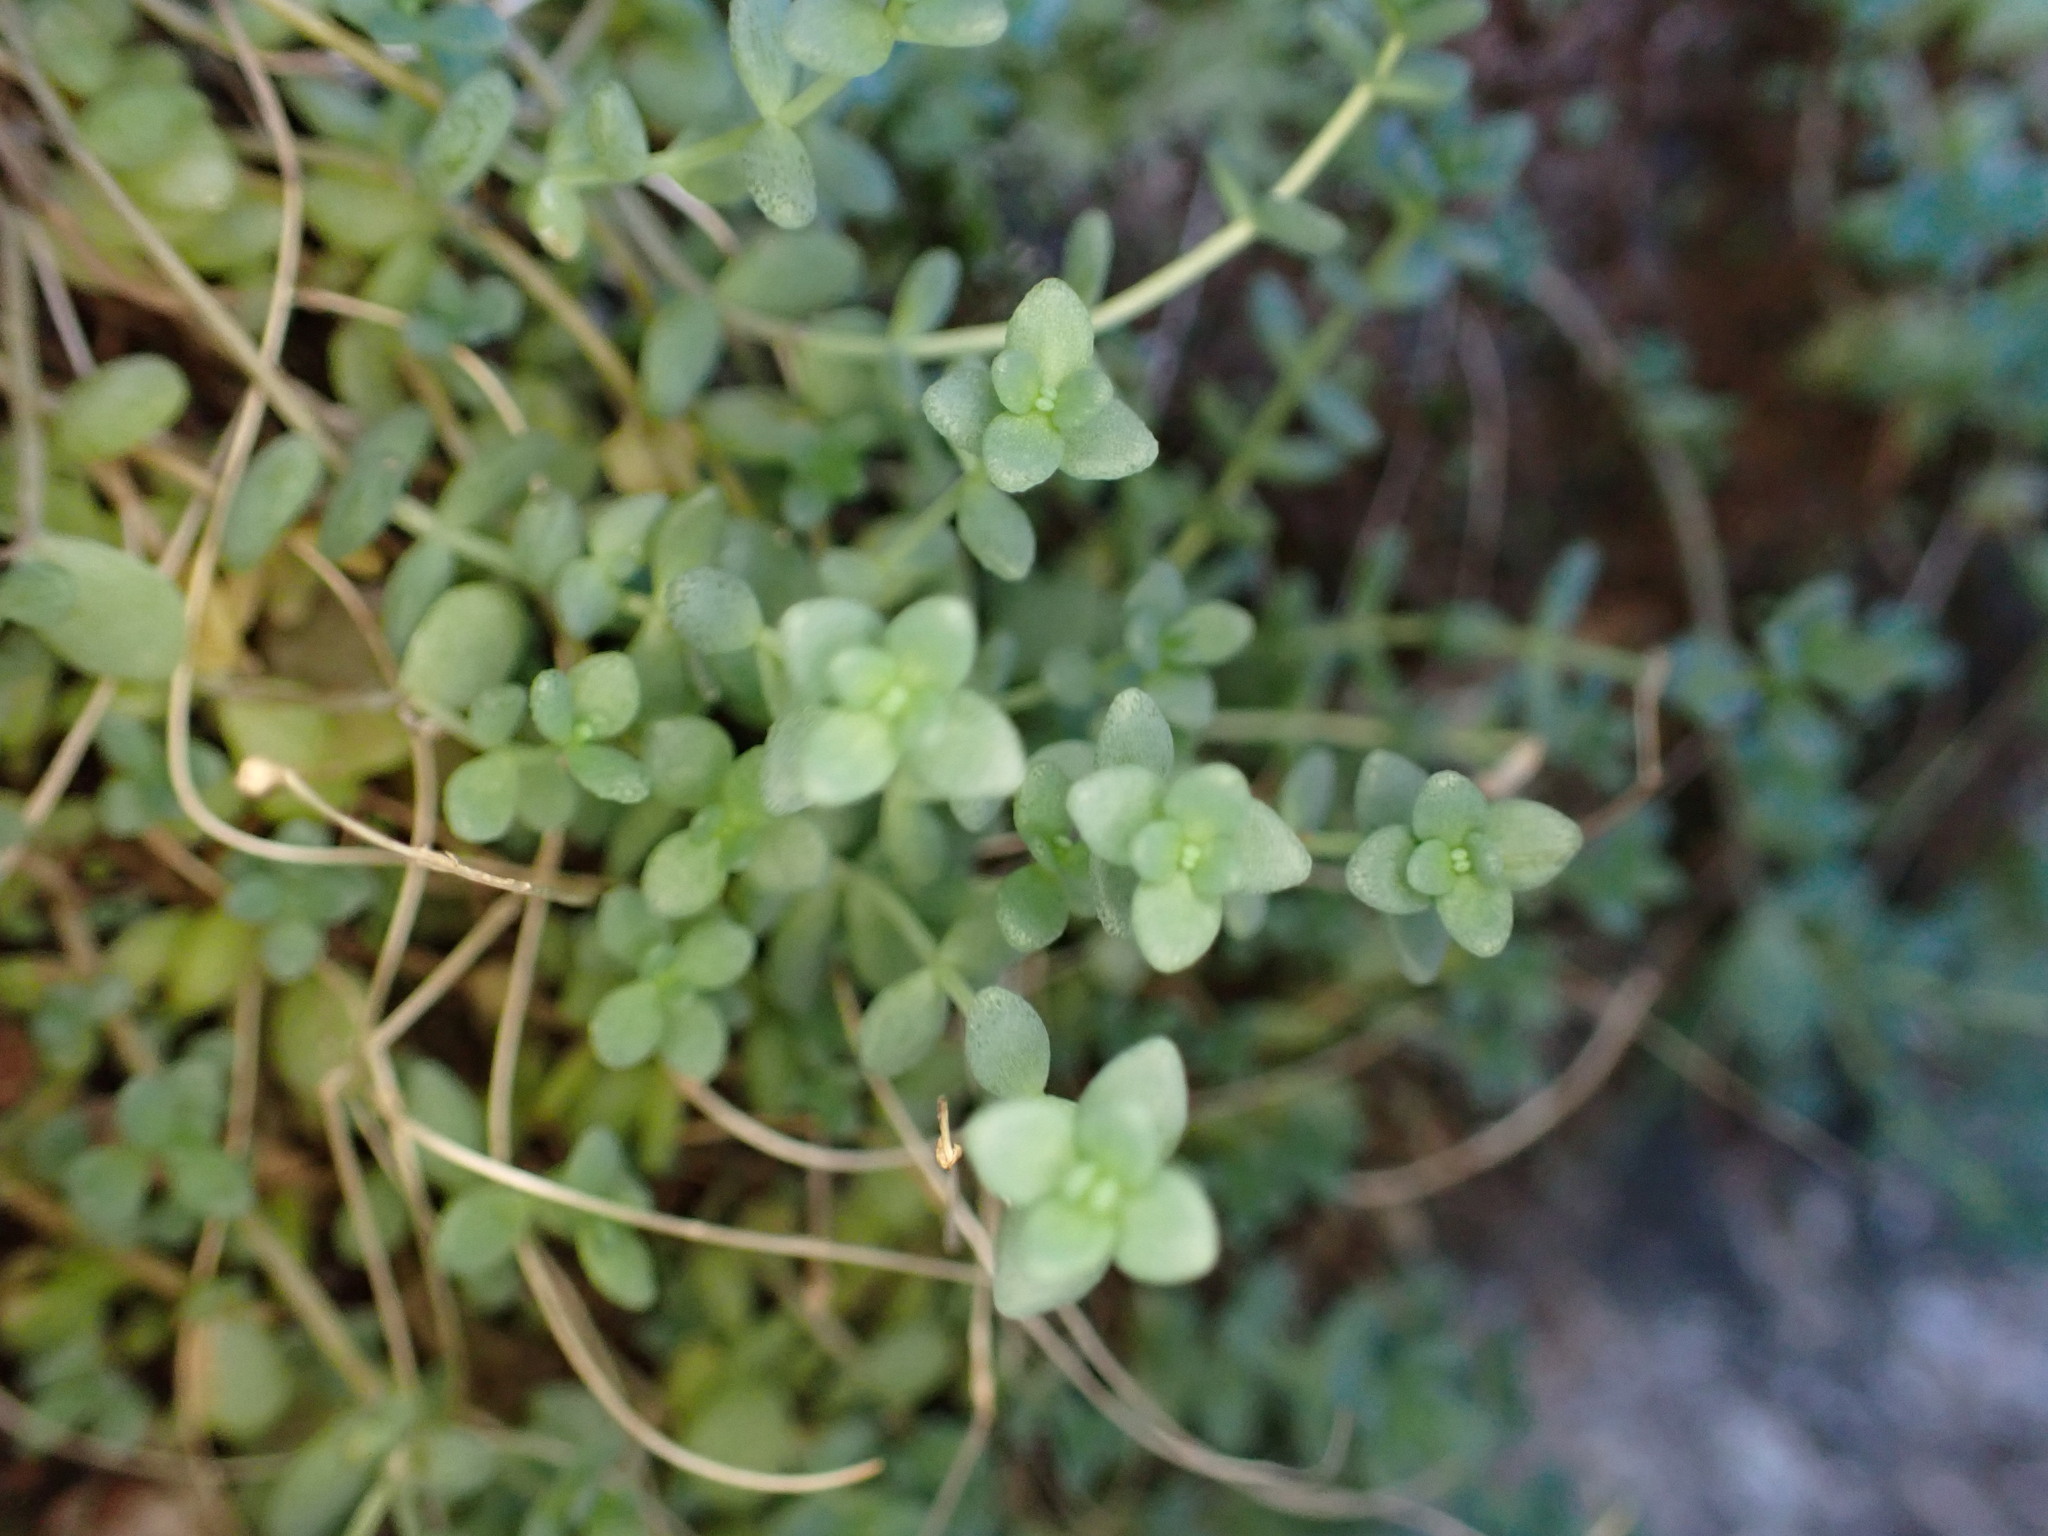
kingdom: Plantae
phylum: Tracheophyta
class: Magnoliopsida
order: Saxifragales
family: Crassulaceae
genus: Sedum
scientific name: Sedum dasyphyllum
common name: Thick-leaf stonecrop
